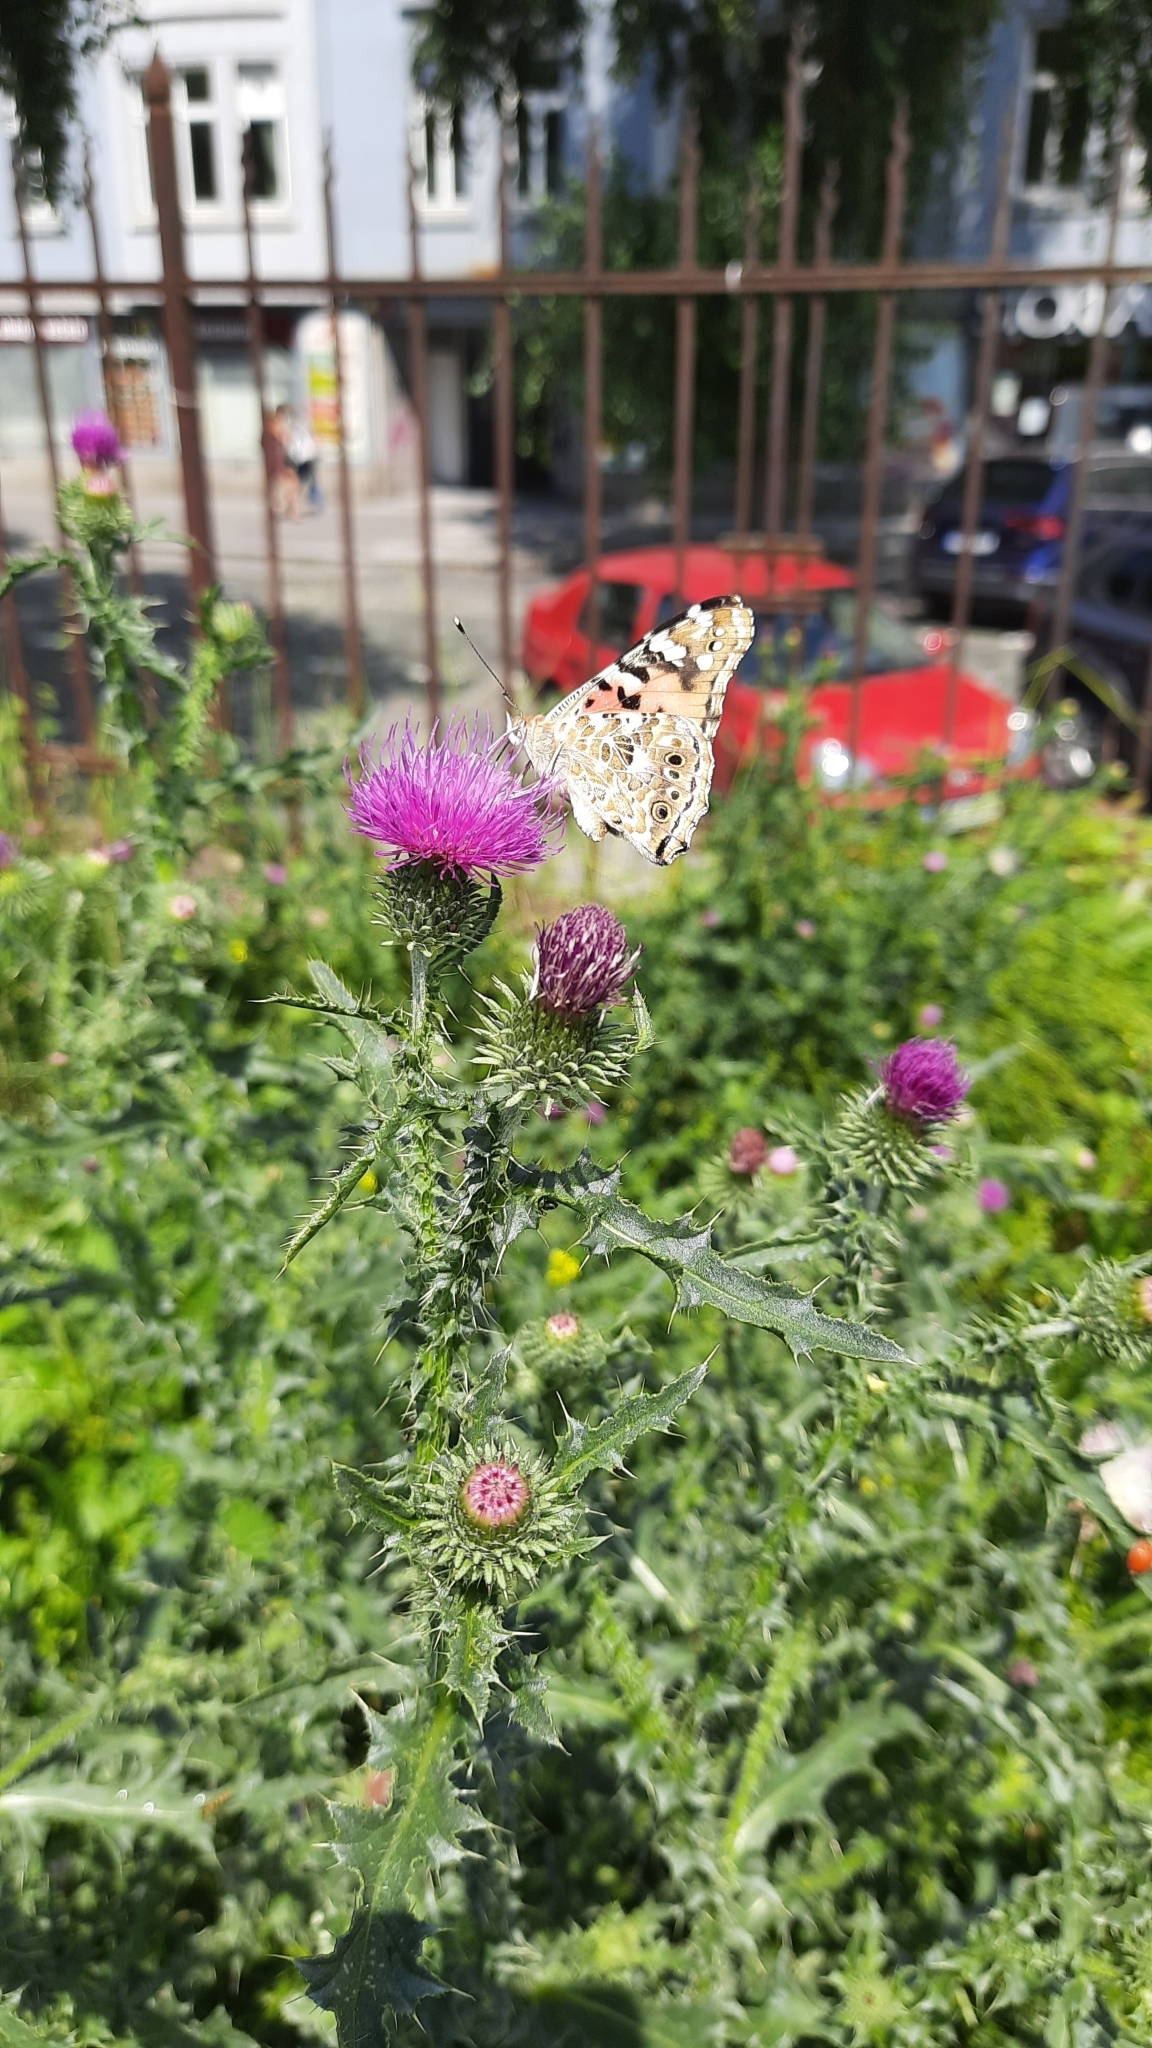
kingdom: Animalia
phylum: Arthropoda
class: Insecta
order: Lepidoptera
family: Nymphalidae
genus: Vanessa
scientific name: Vanessa cardui
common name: Painted lady
